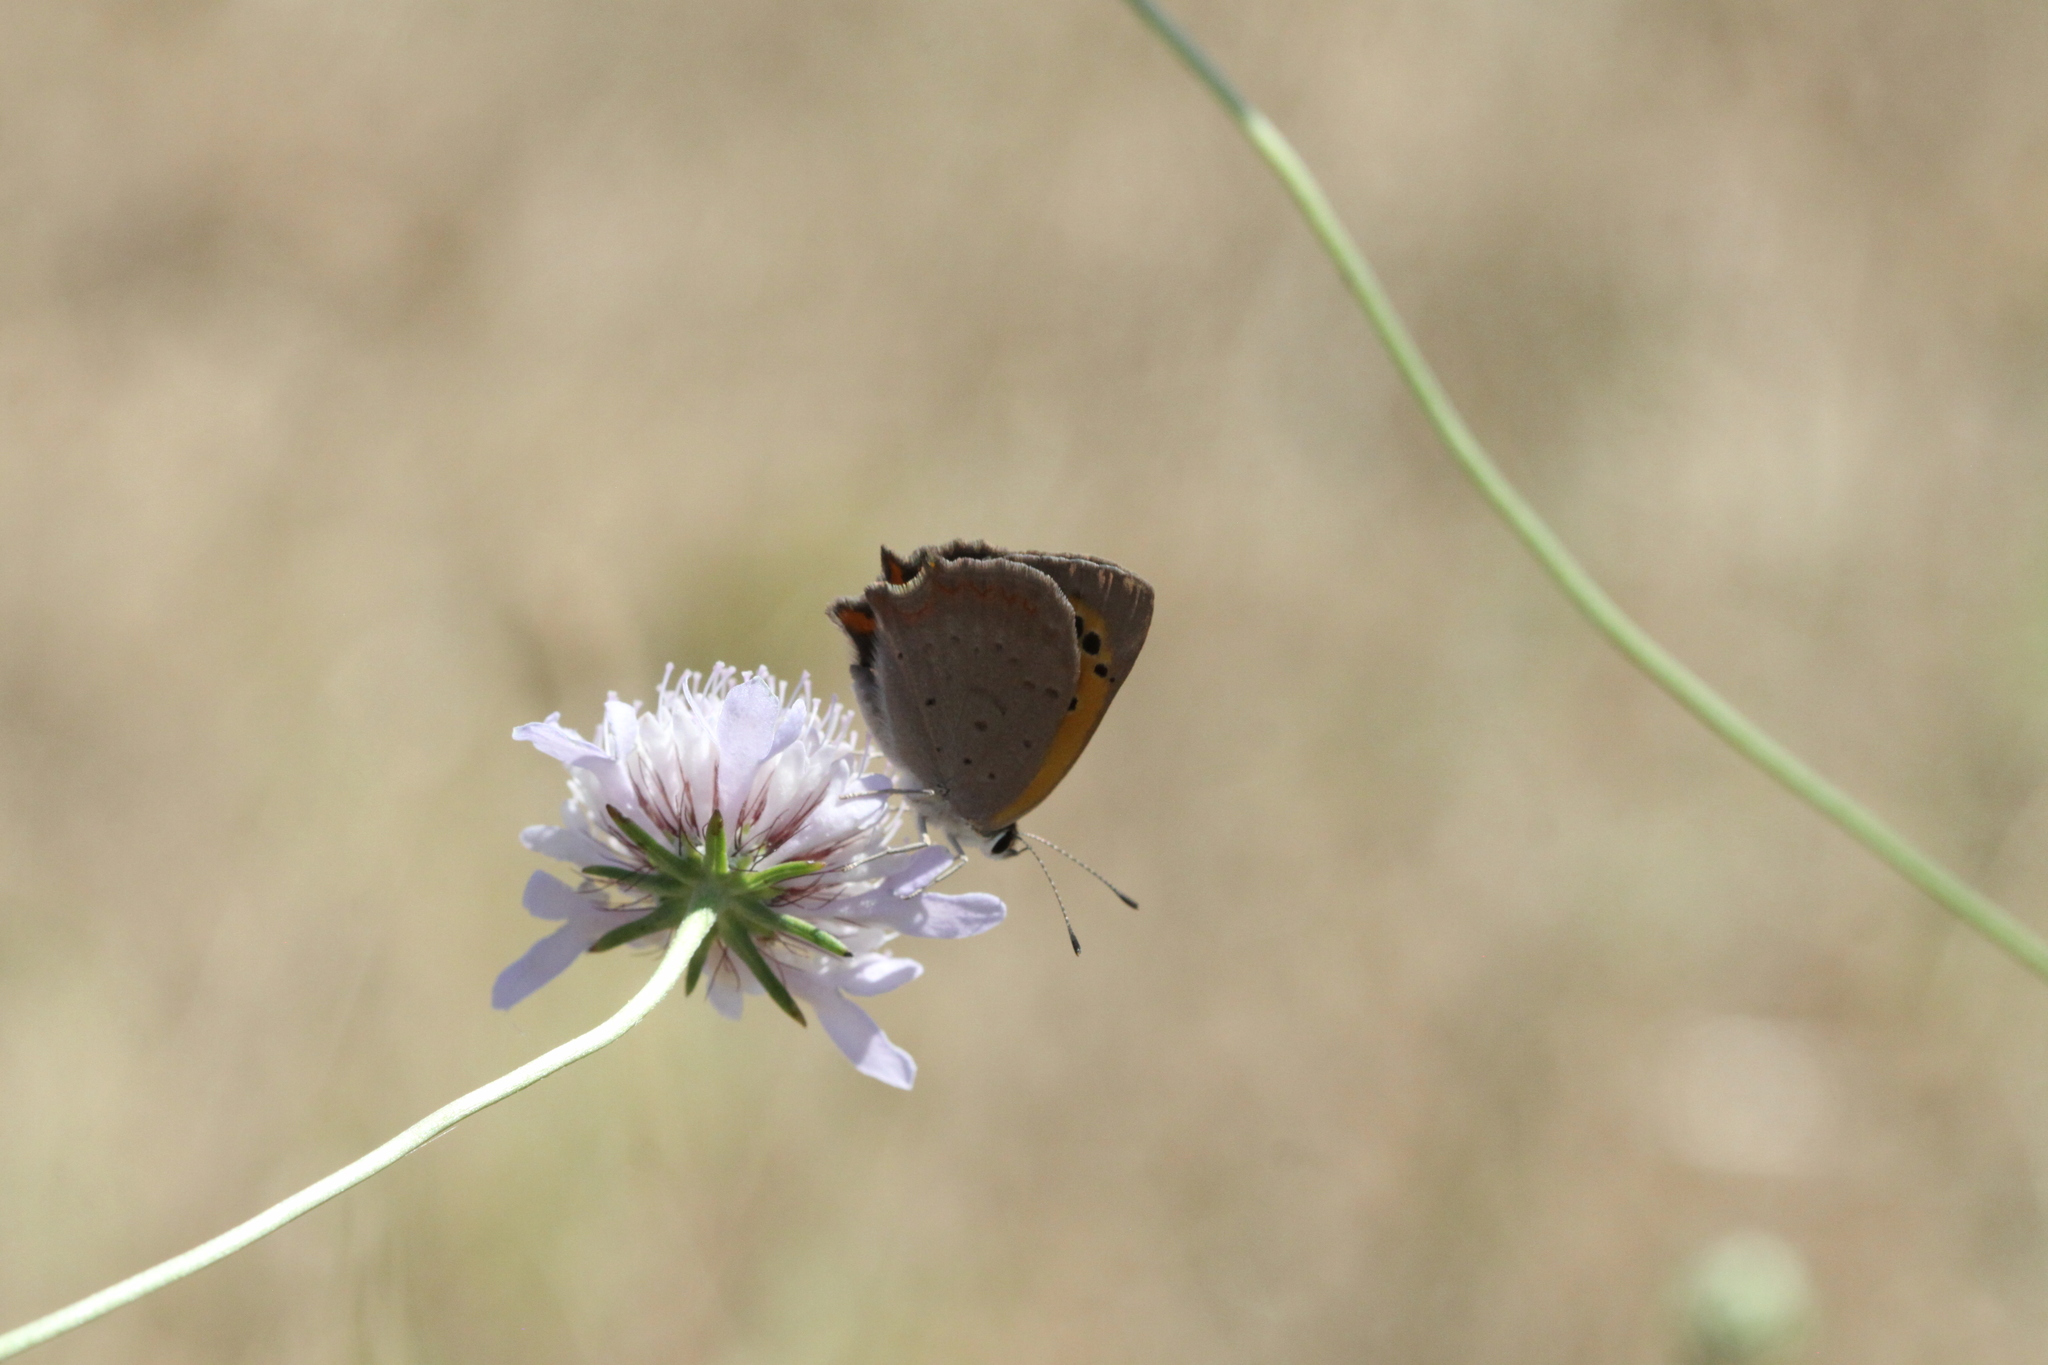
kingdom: Animalia
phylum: Arthropoda
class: Insecta
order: Lepidoptera
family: Lycaenidae
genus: Lycaena
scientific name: Lycaena phlaeas
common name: Small copper
